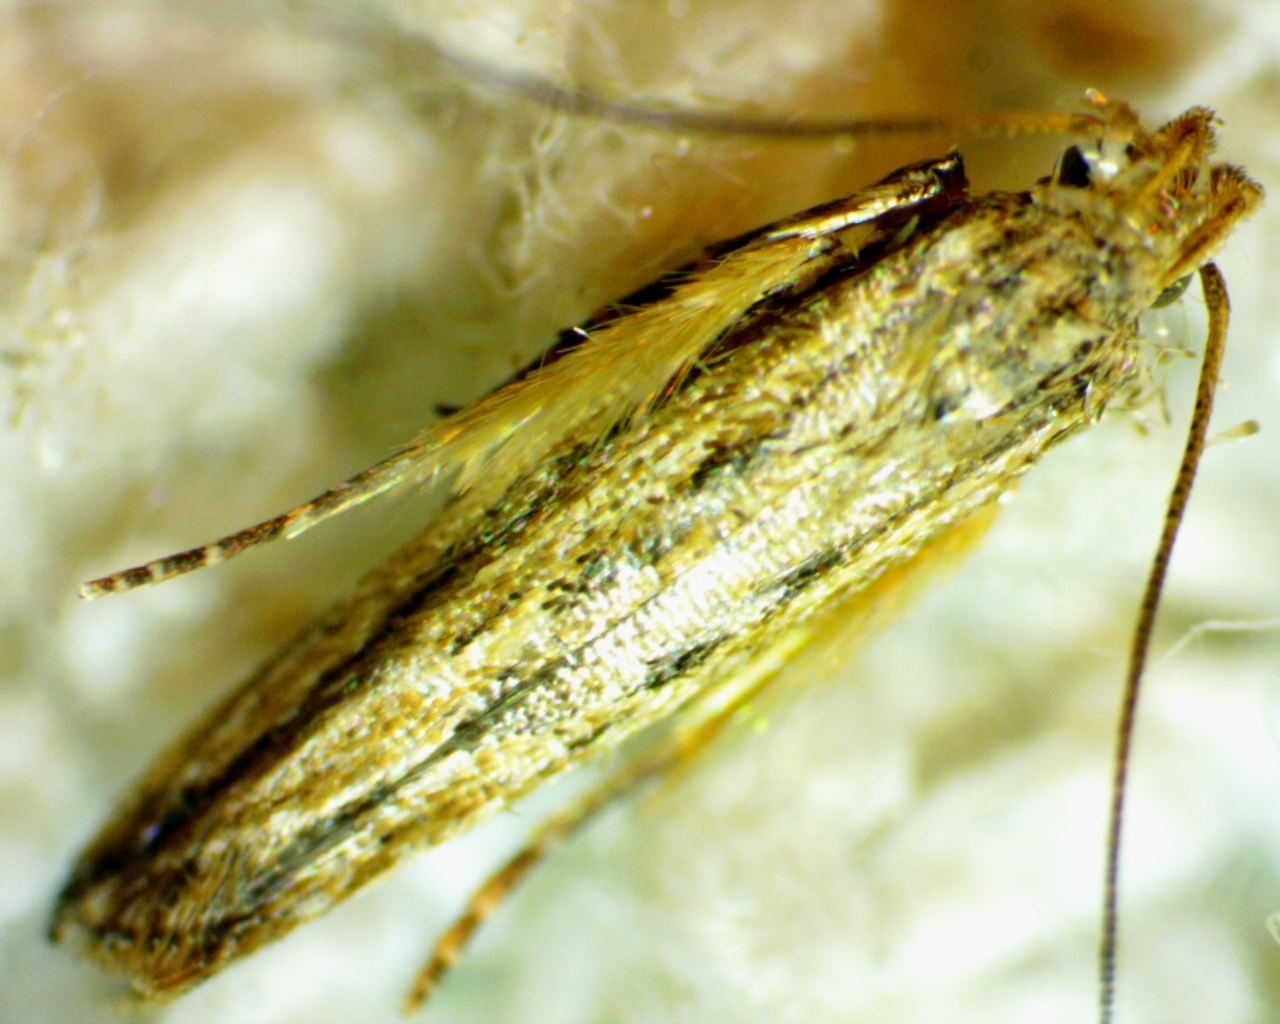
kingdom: Animalia
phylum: Arthropoda
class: Insecta
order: Lepidoptera
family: Gelechiidae
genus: Symmetrischema
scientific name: Symmetrischema striatella
